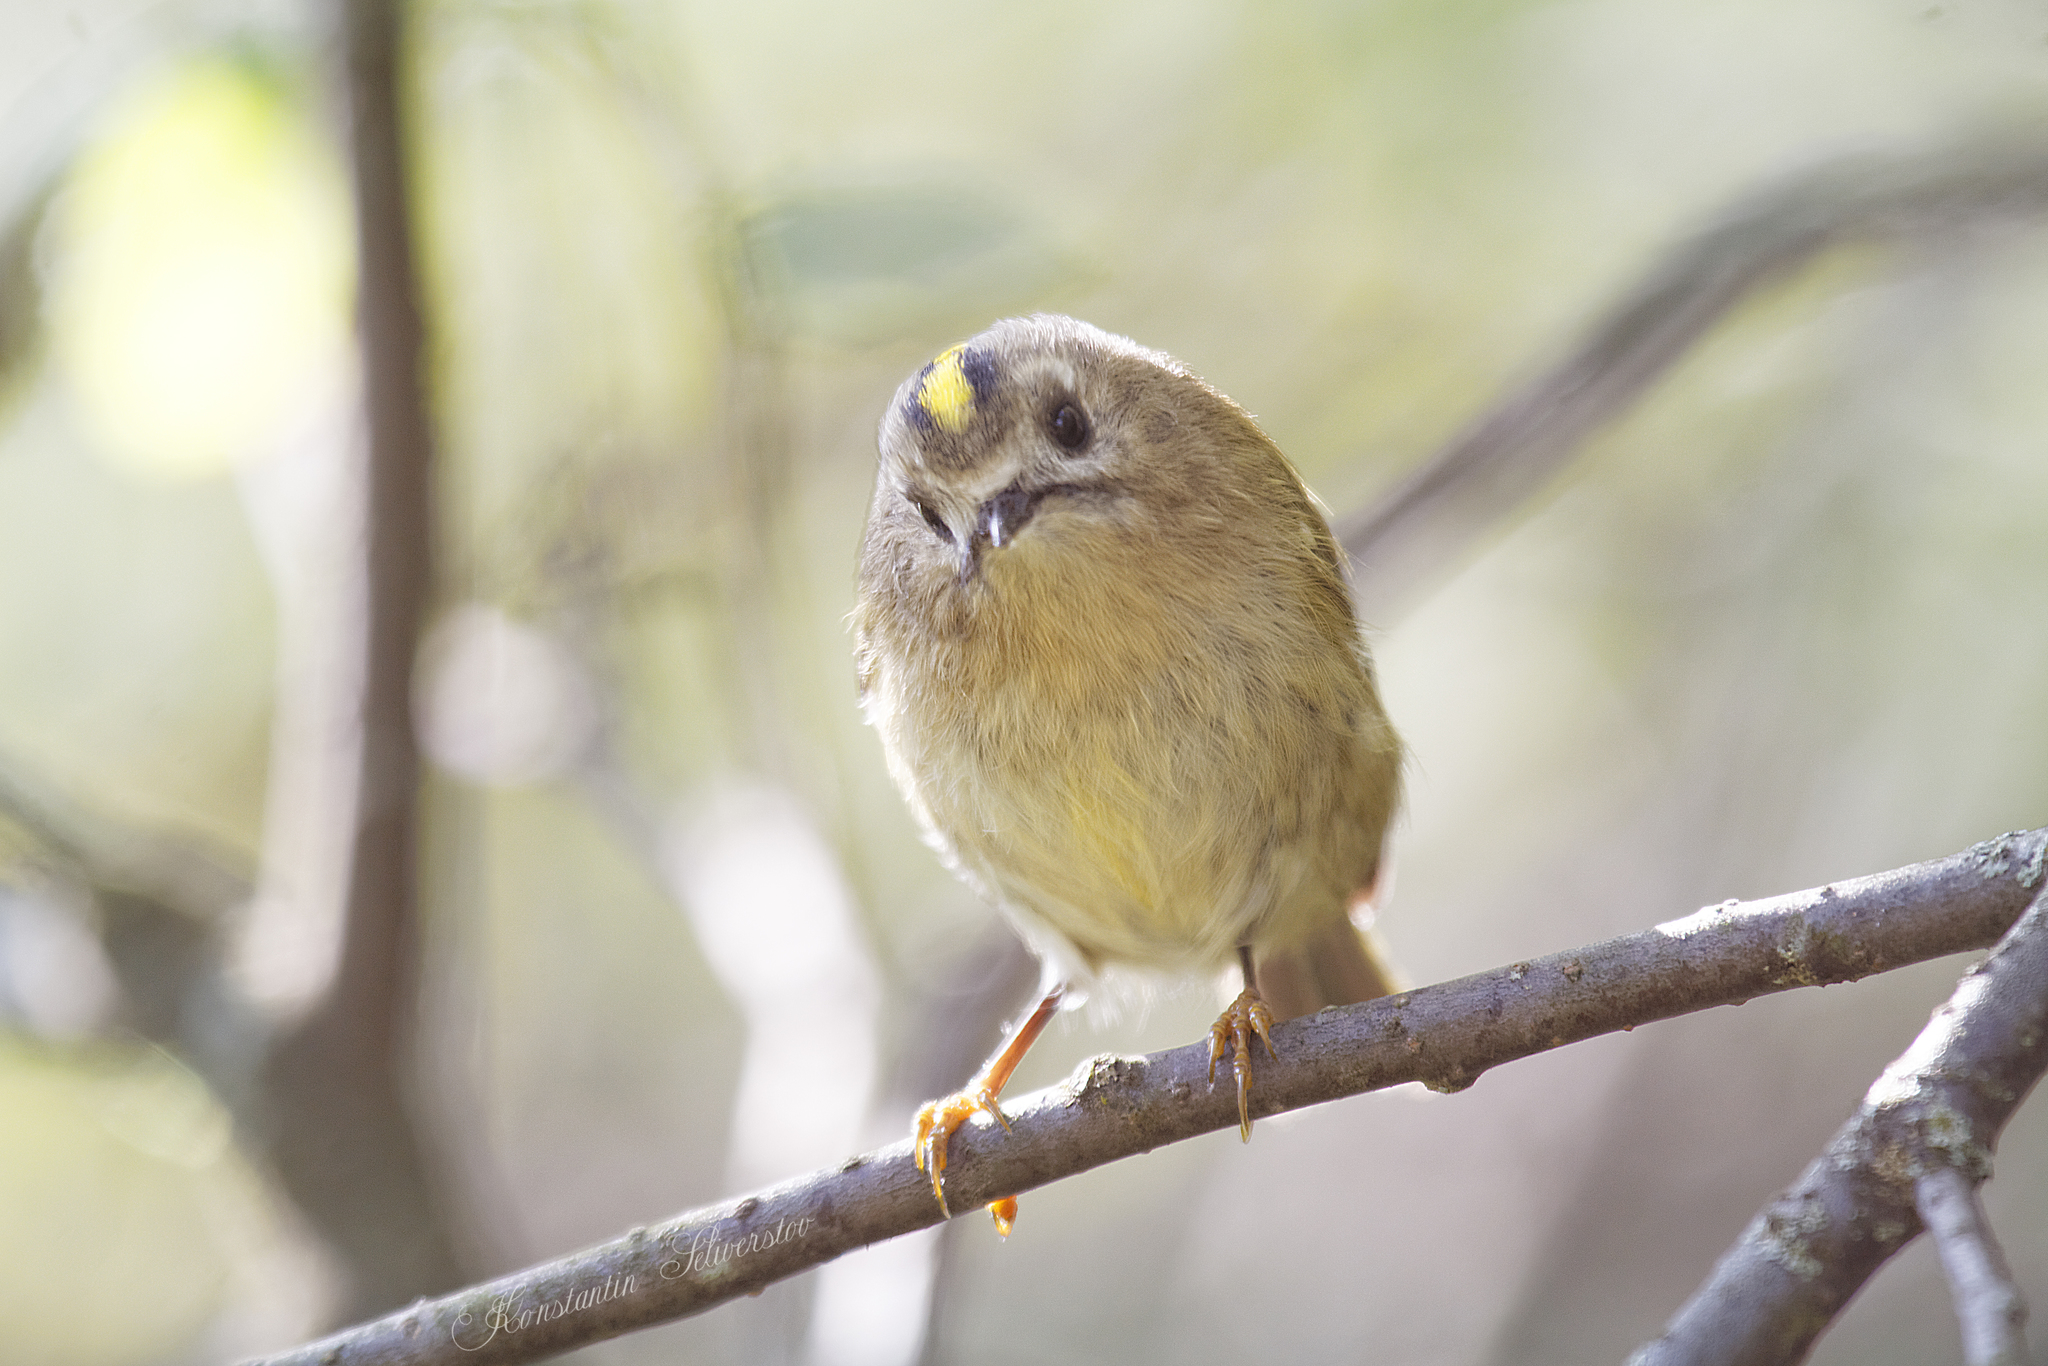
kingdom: Animalia
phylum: Chordata
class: Aves
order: Passeriformes
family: Regulidae
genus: Regulus
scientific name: Regulus regulus
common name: Goldcrest
